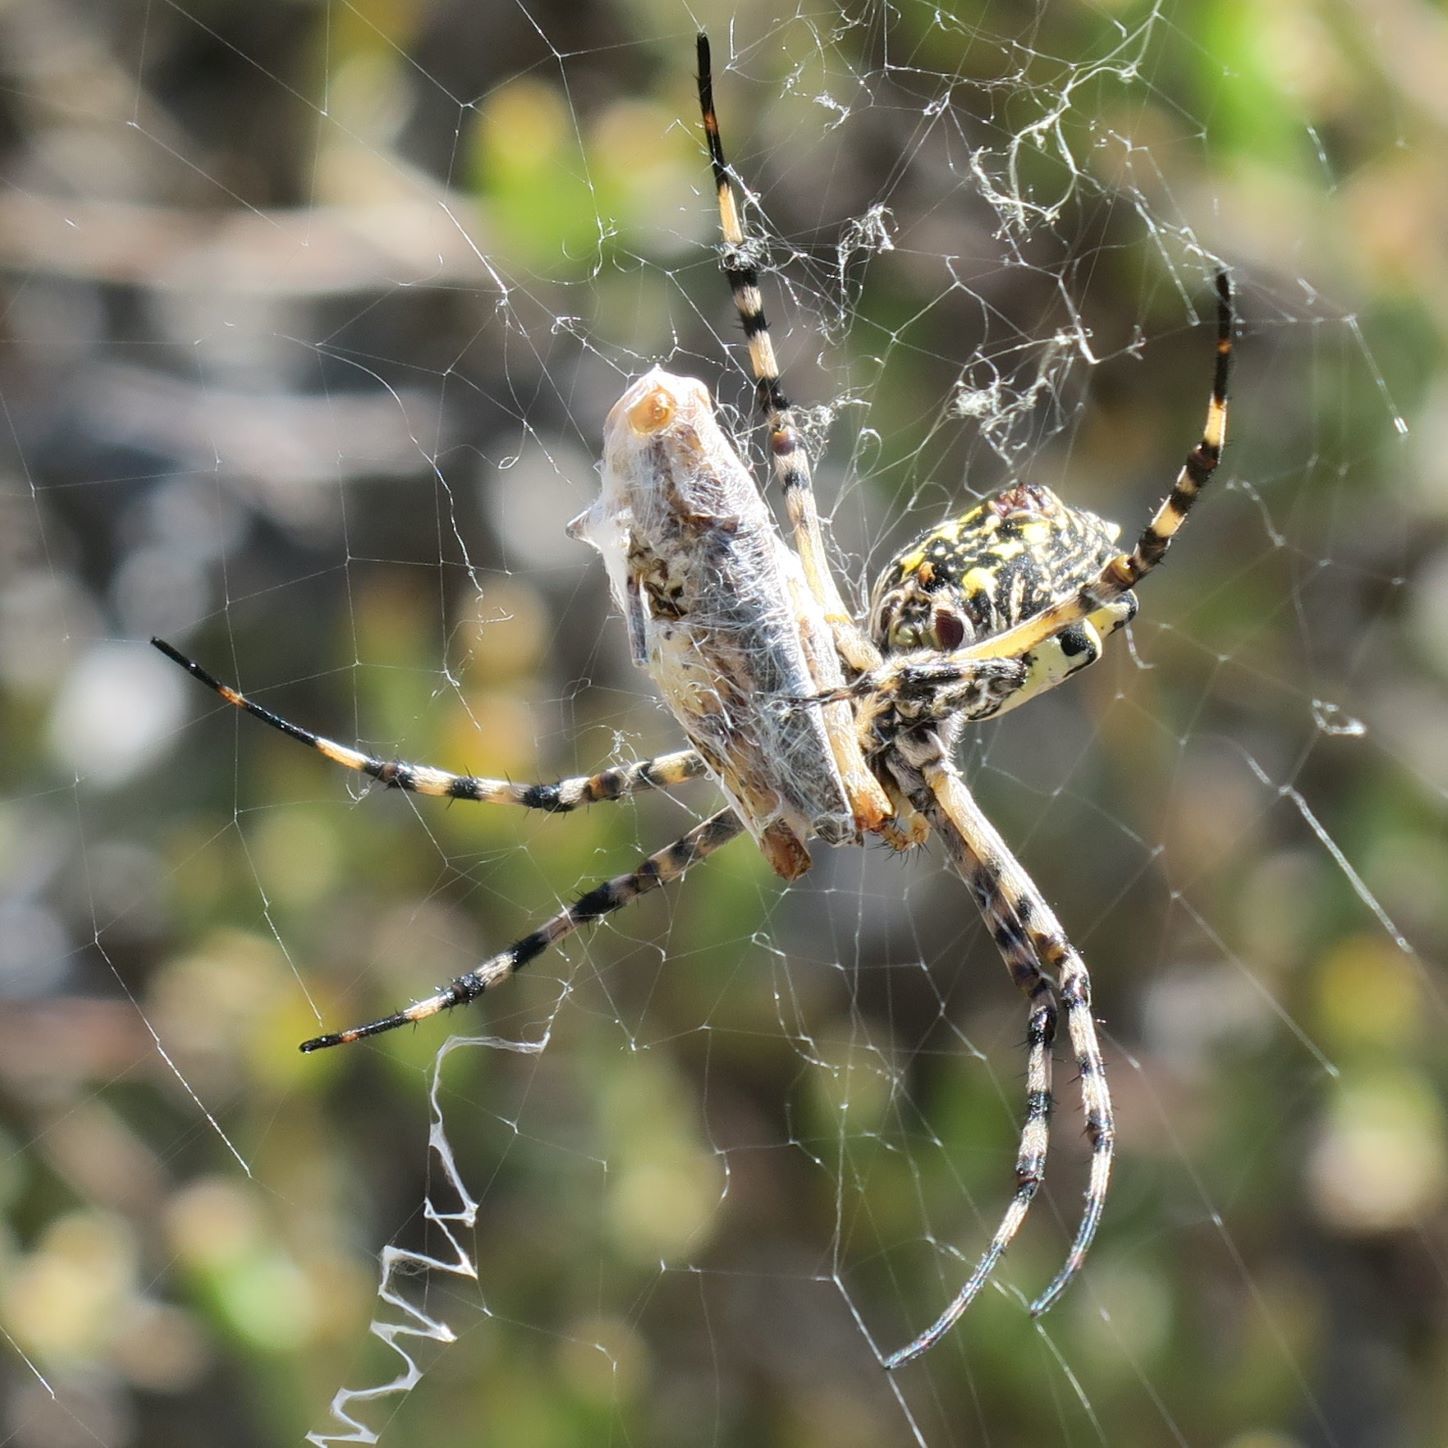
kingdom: Animalia
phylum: Arthropoda
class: Arachnida
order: Araneae
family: Araneidae
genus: Argiope
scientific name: Argiope australis
